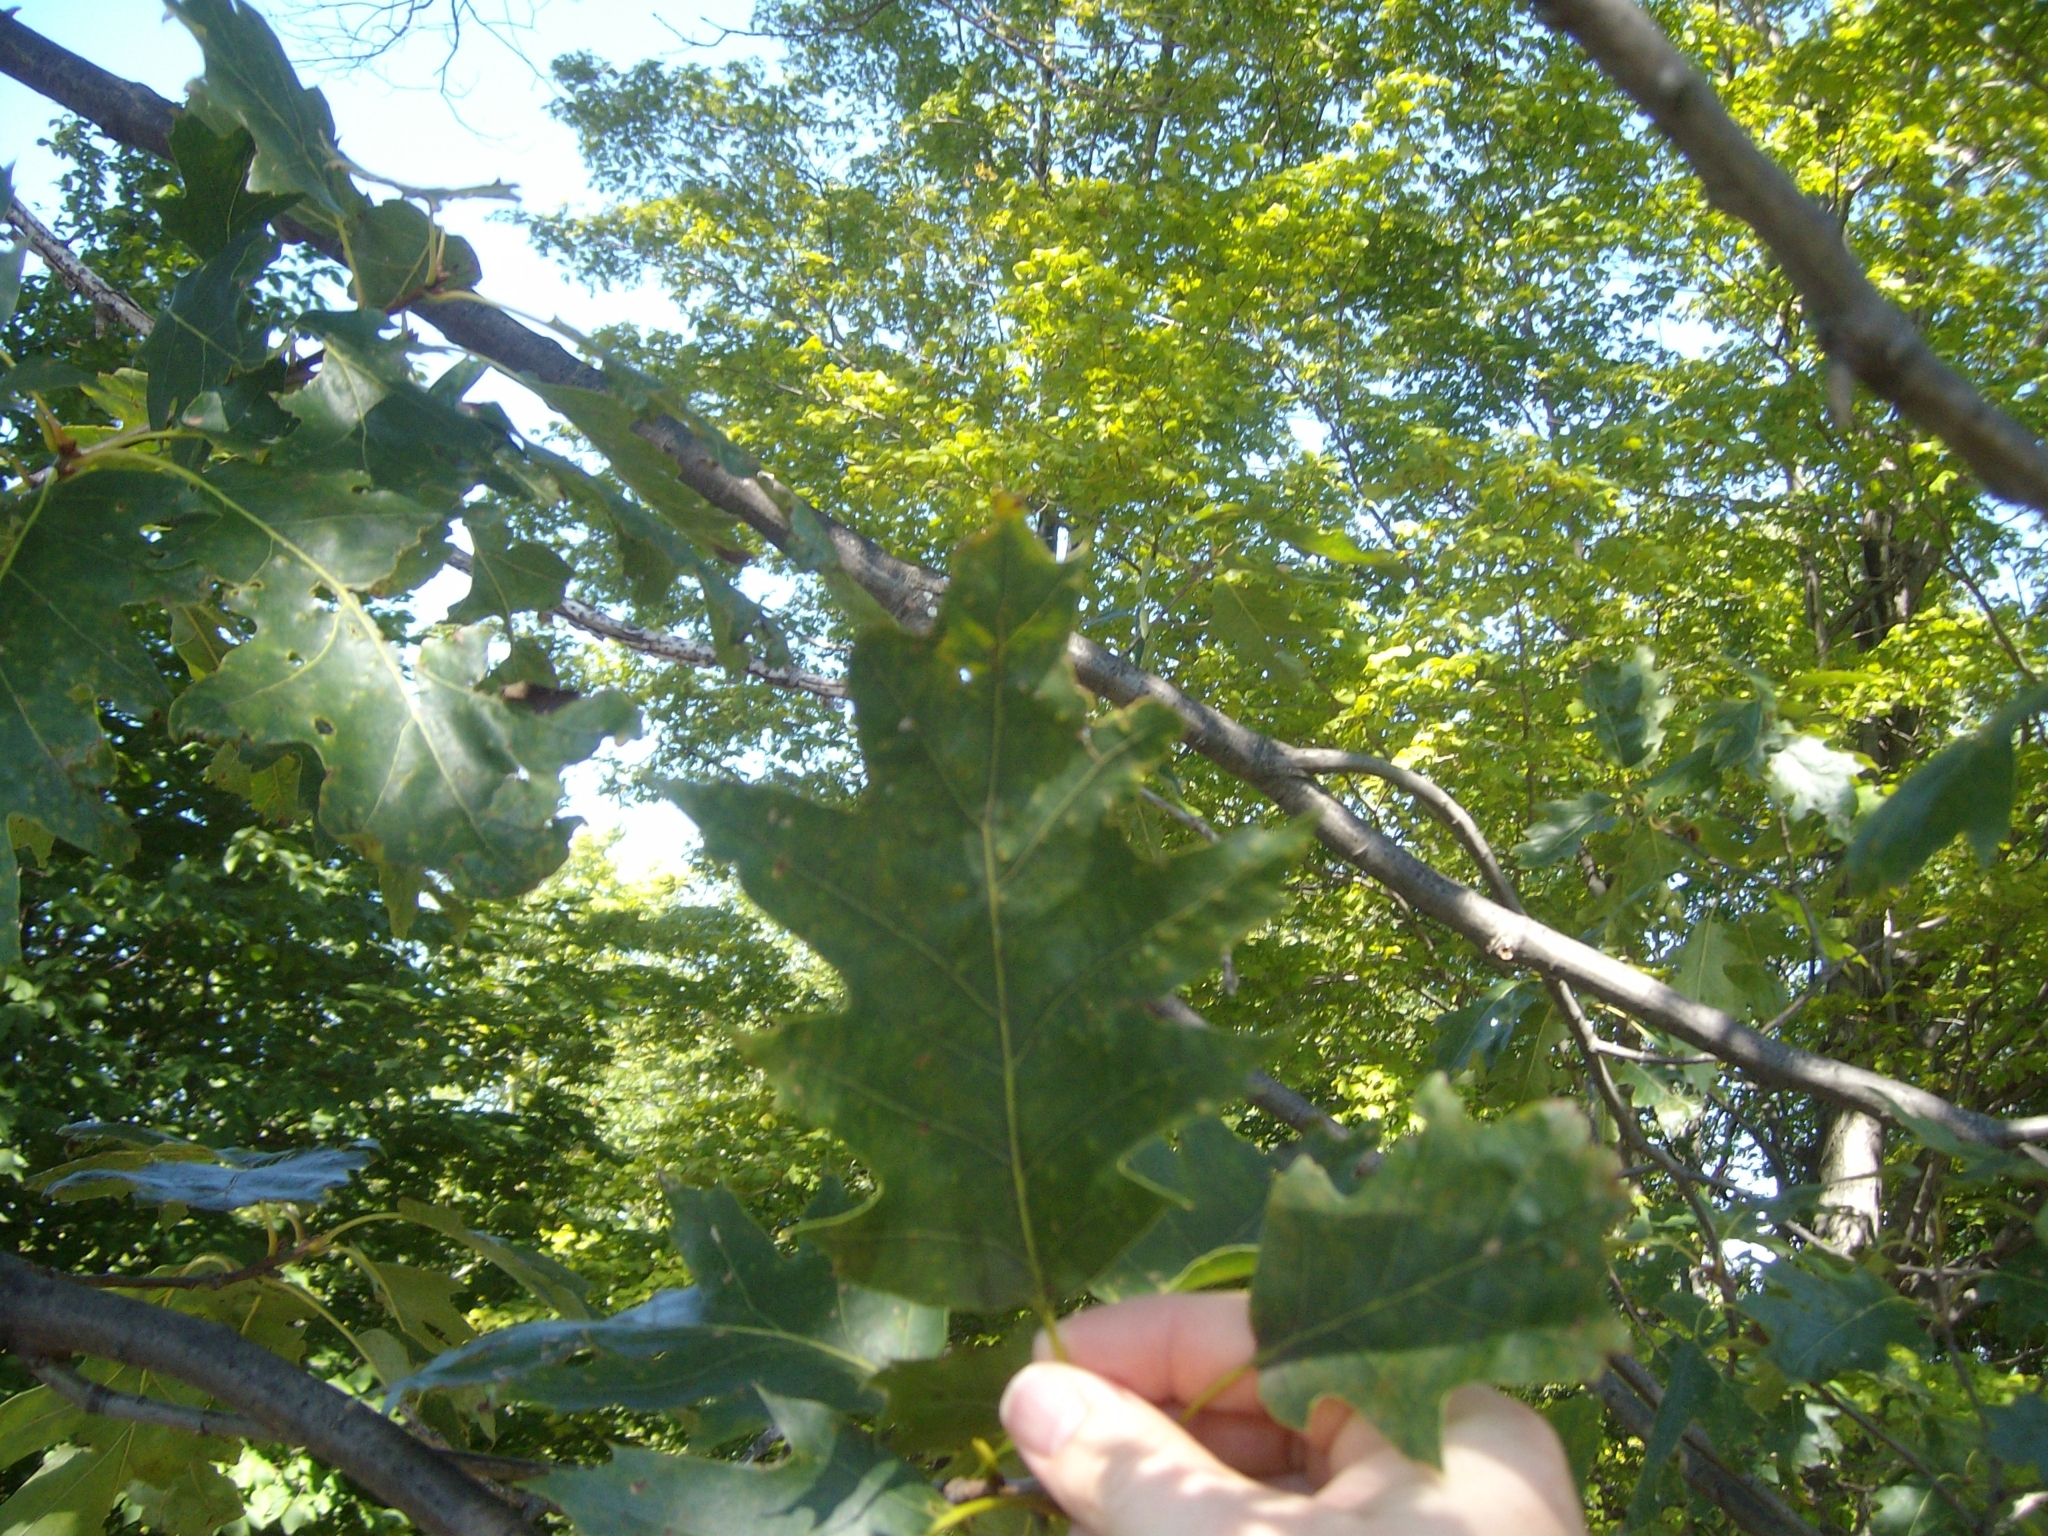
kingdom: Plantae
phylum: Tracheophyta
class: Magnoliopsida
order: Fagales
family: Fagaceae
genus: Quercus
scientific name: Quercus rubra
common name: Red oak
